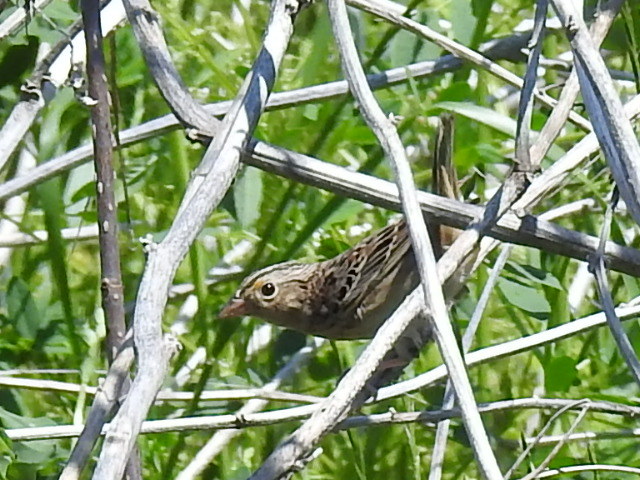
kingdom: Animalia
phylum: Chordata
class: Aves
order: Passeriformes
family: Passerellidae
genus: Ammodramus
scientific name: Ammodramus savannarum
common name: Grasshopper sparrow
